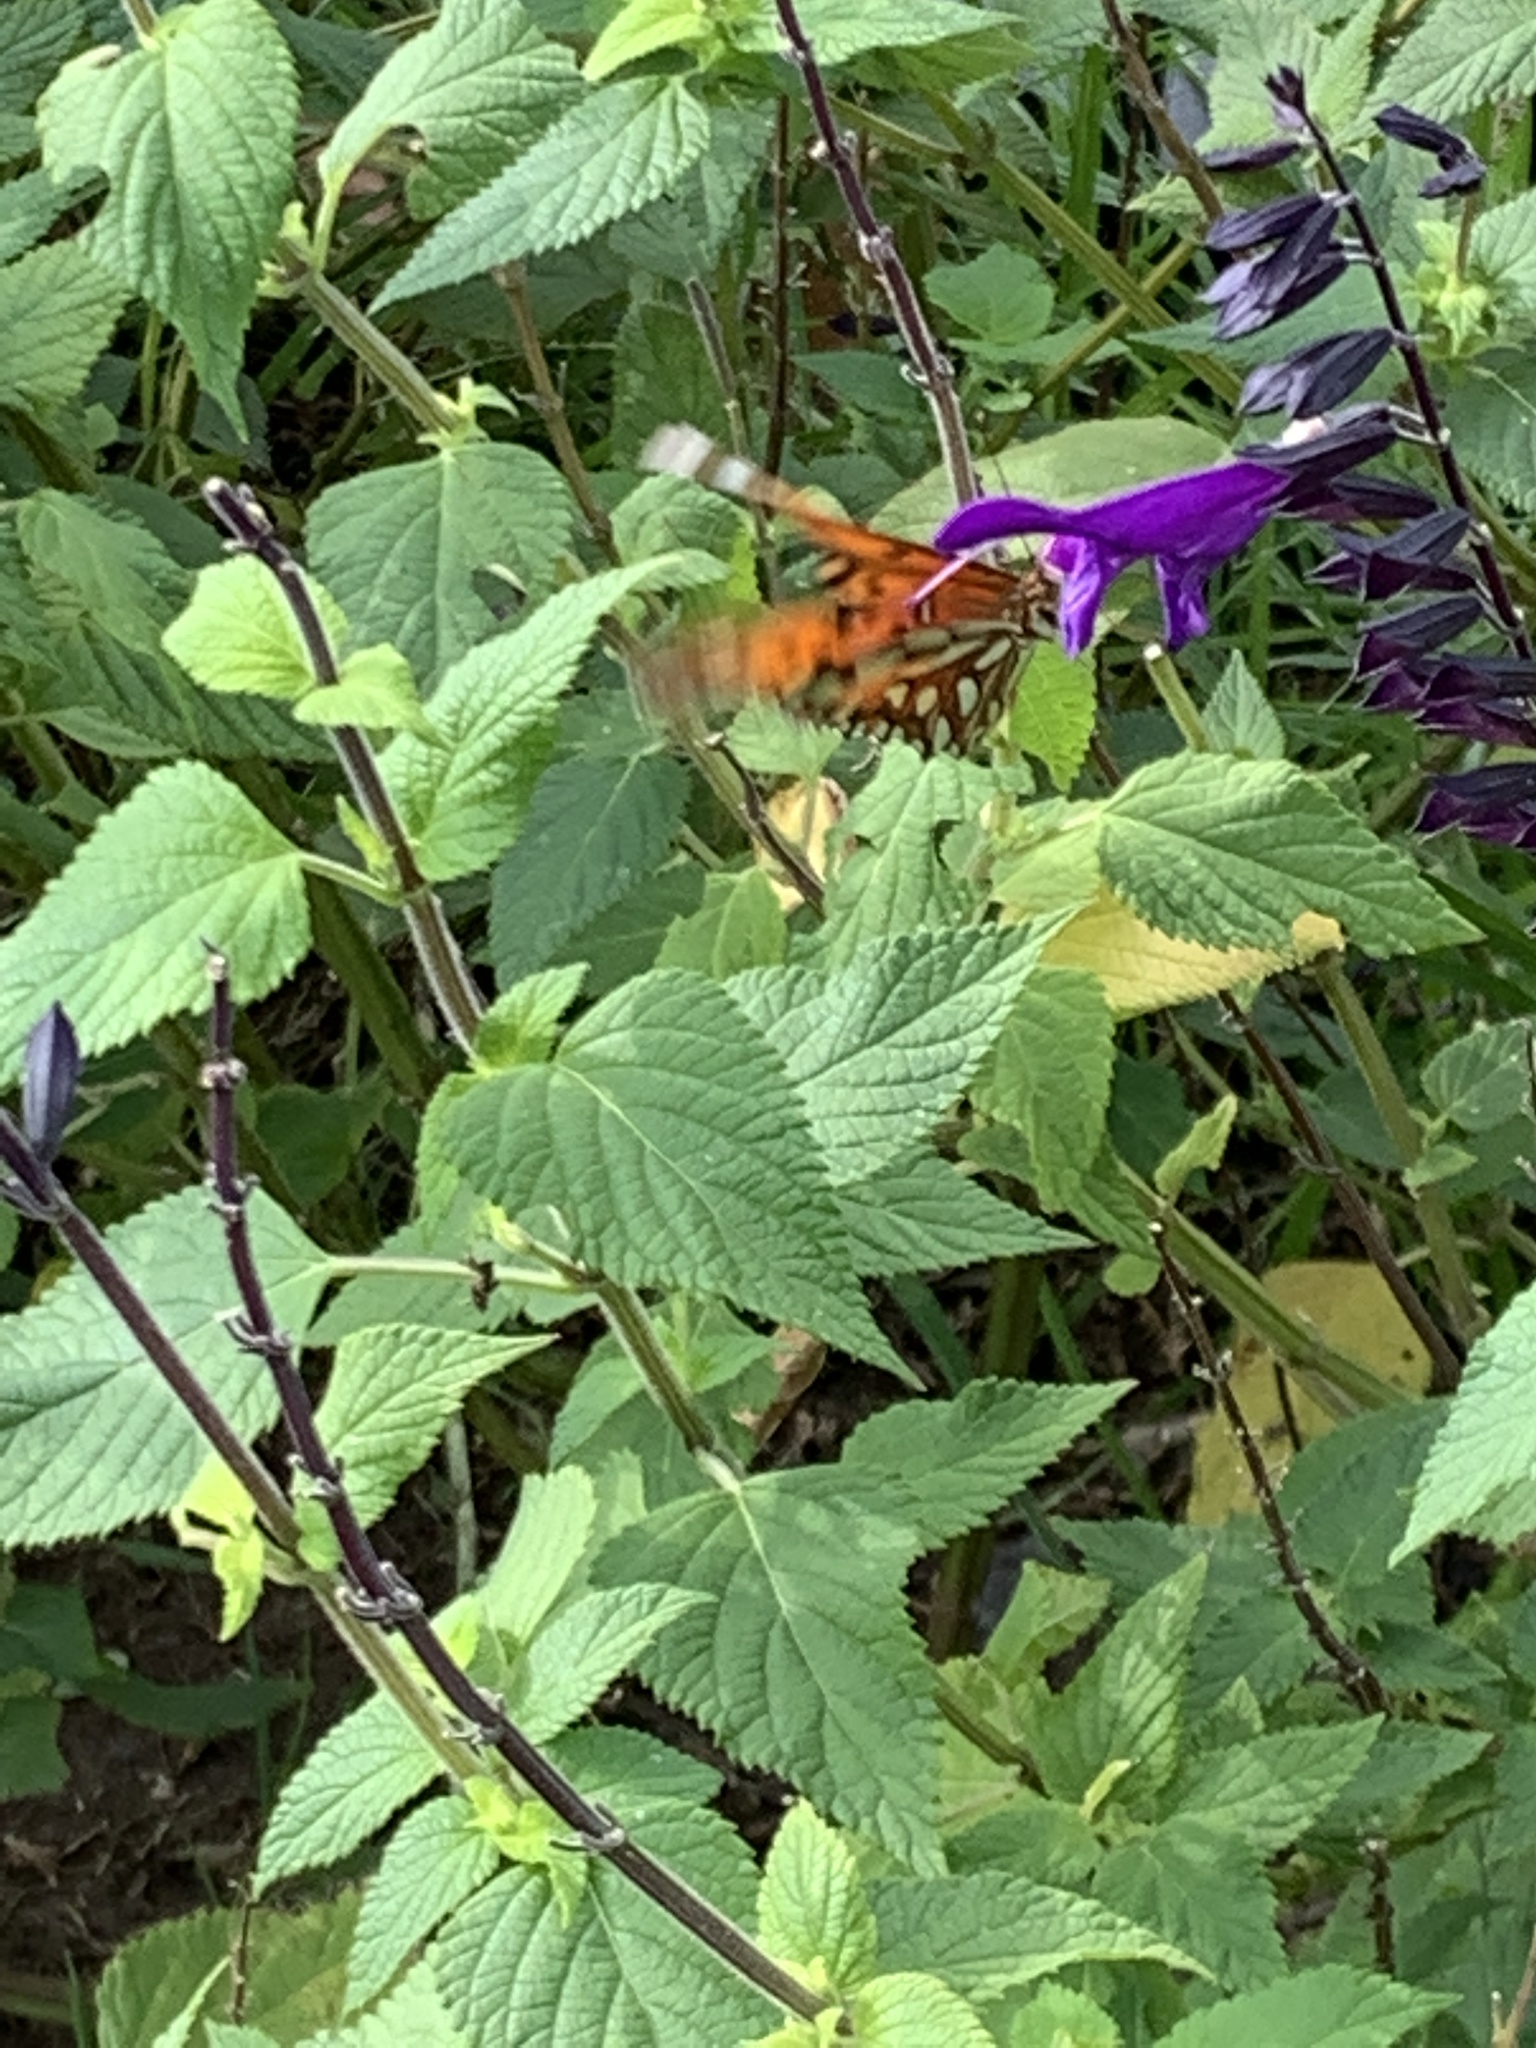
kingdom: Animalia
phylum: Arthropoda
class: Insecta
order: Lepidoptera
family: Nymphalidae
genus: Dione
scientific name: Dione vanillae
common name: Gulf fritillary
